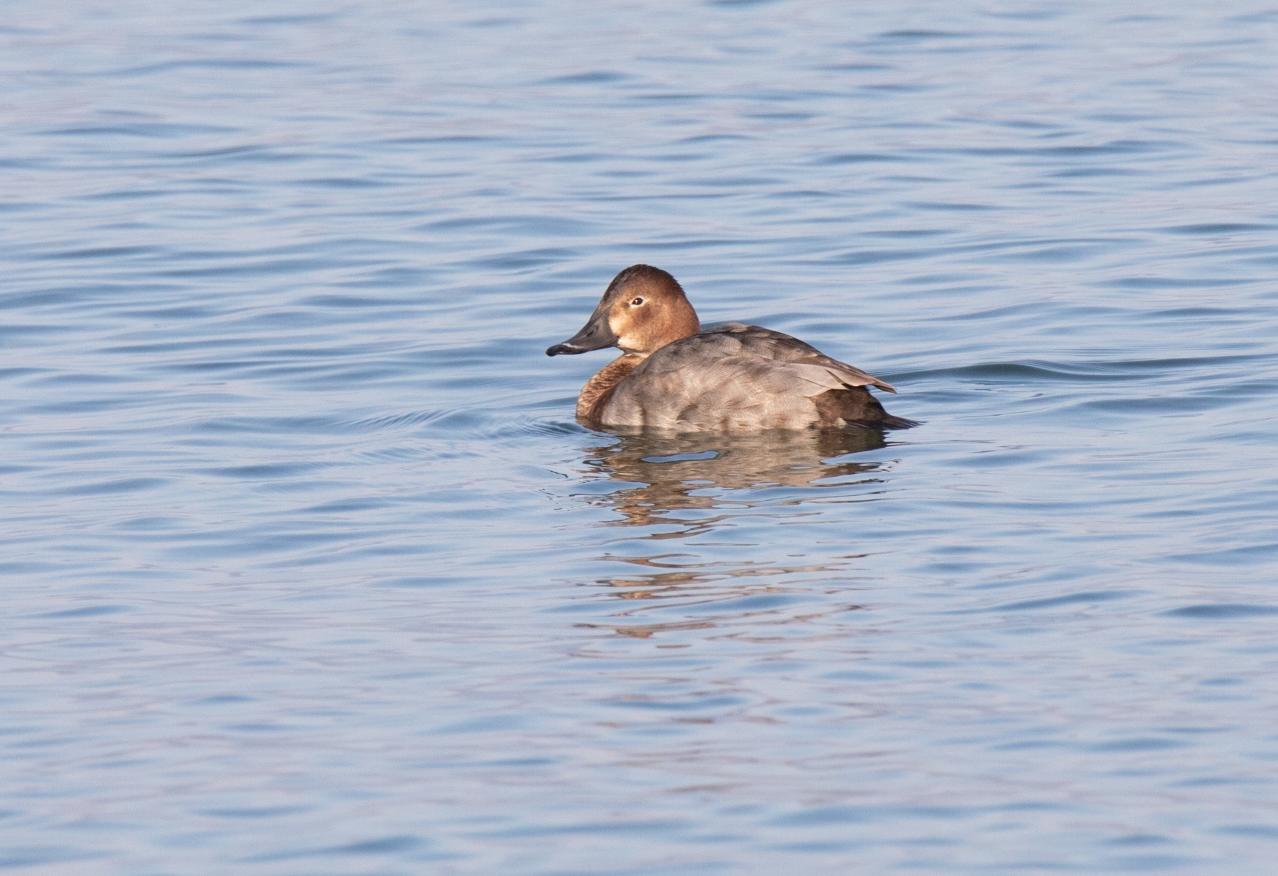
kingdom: Animalia
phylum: Chordata
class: Aves
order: Anseriformes
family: Anatidae
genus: Aythya
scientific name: Aythya ferina
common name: Common pochard
